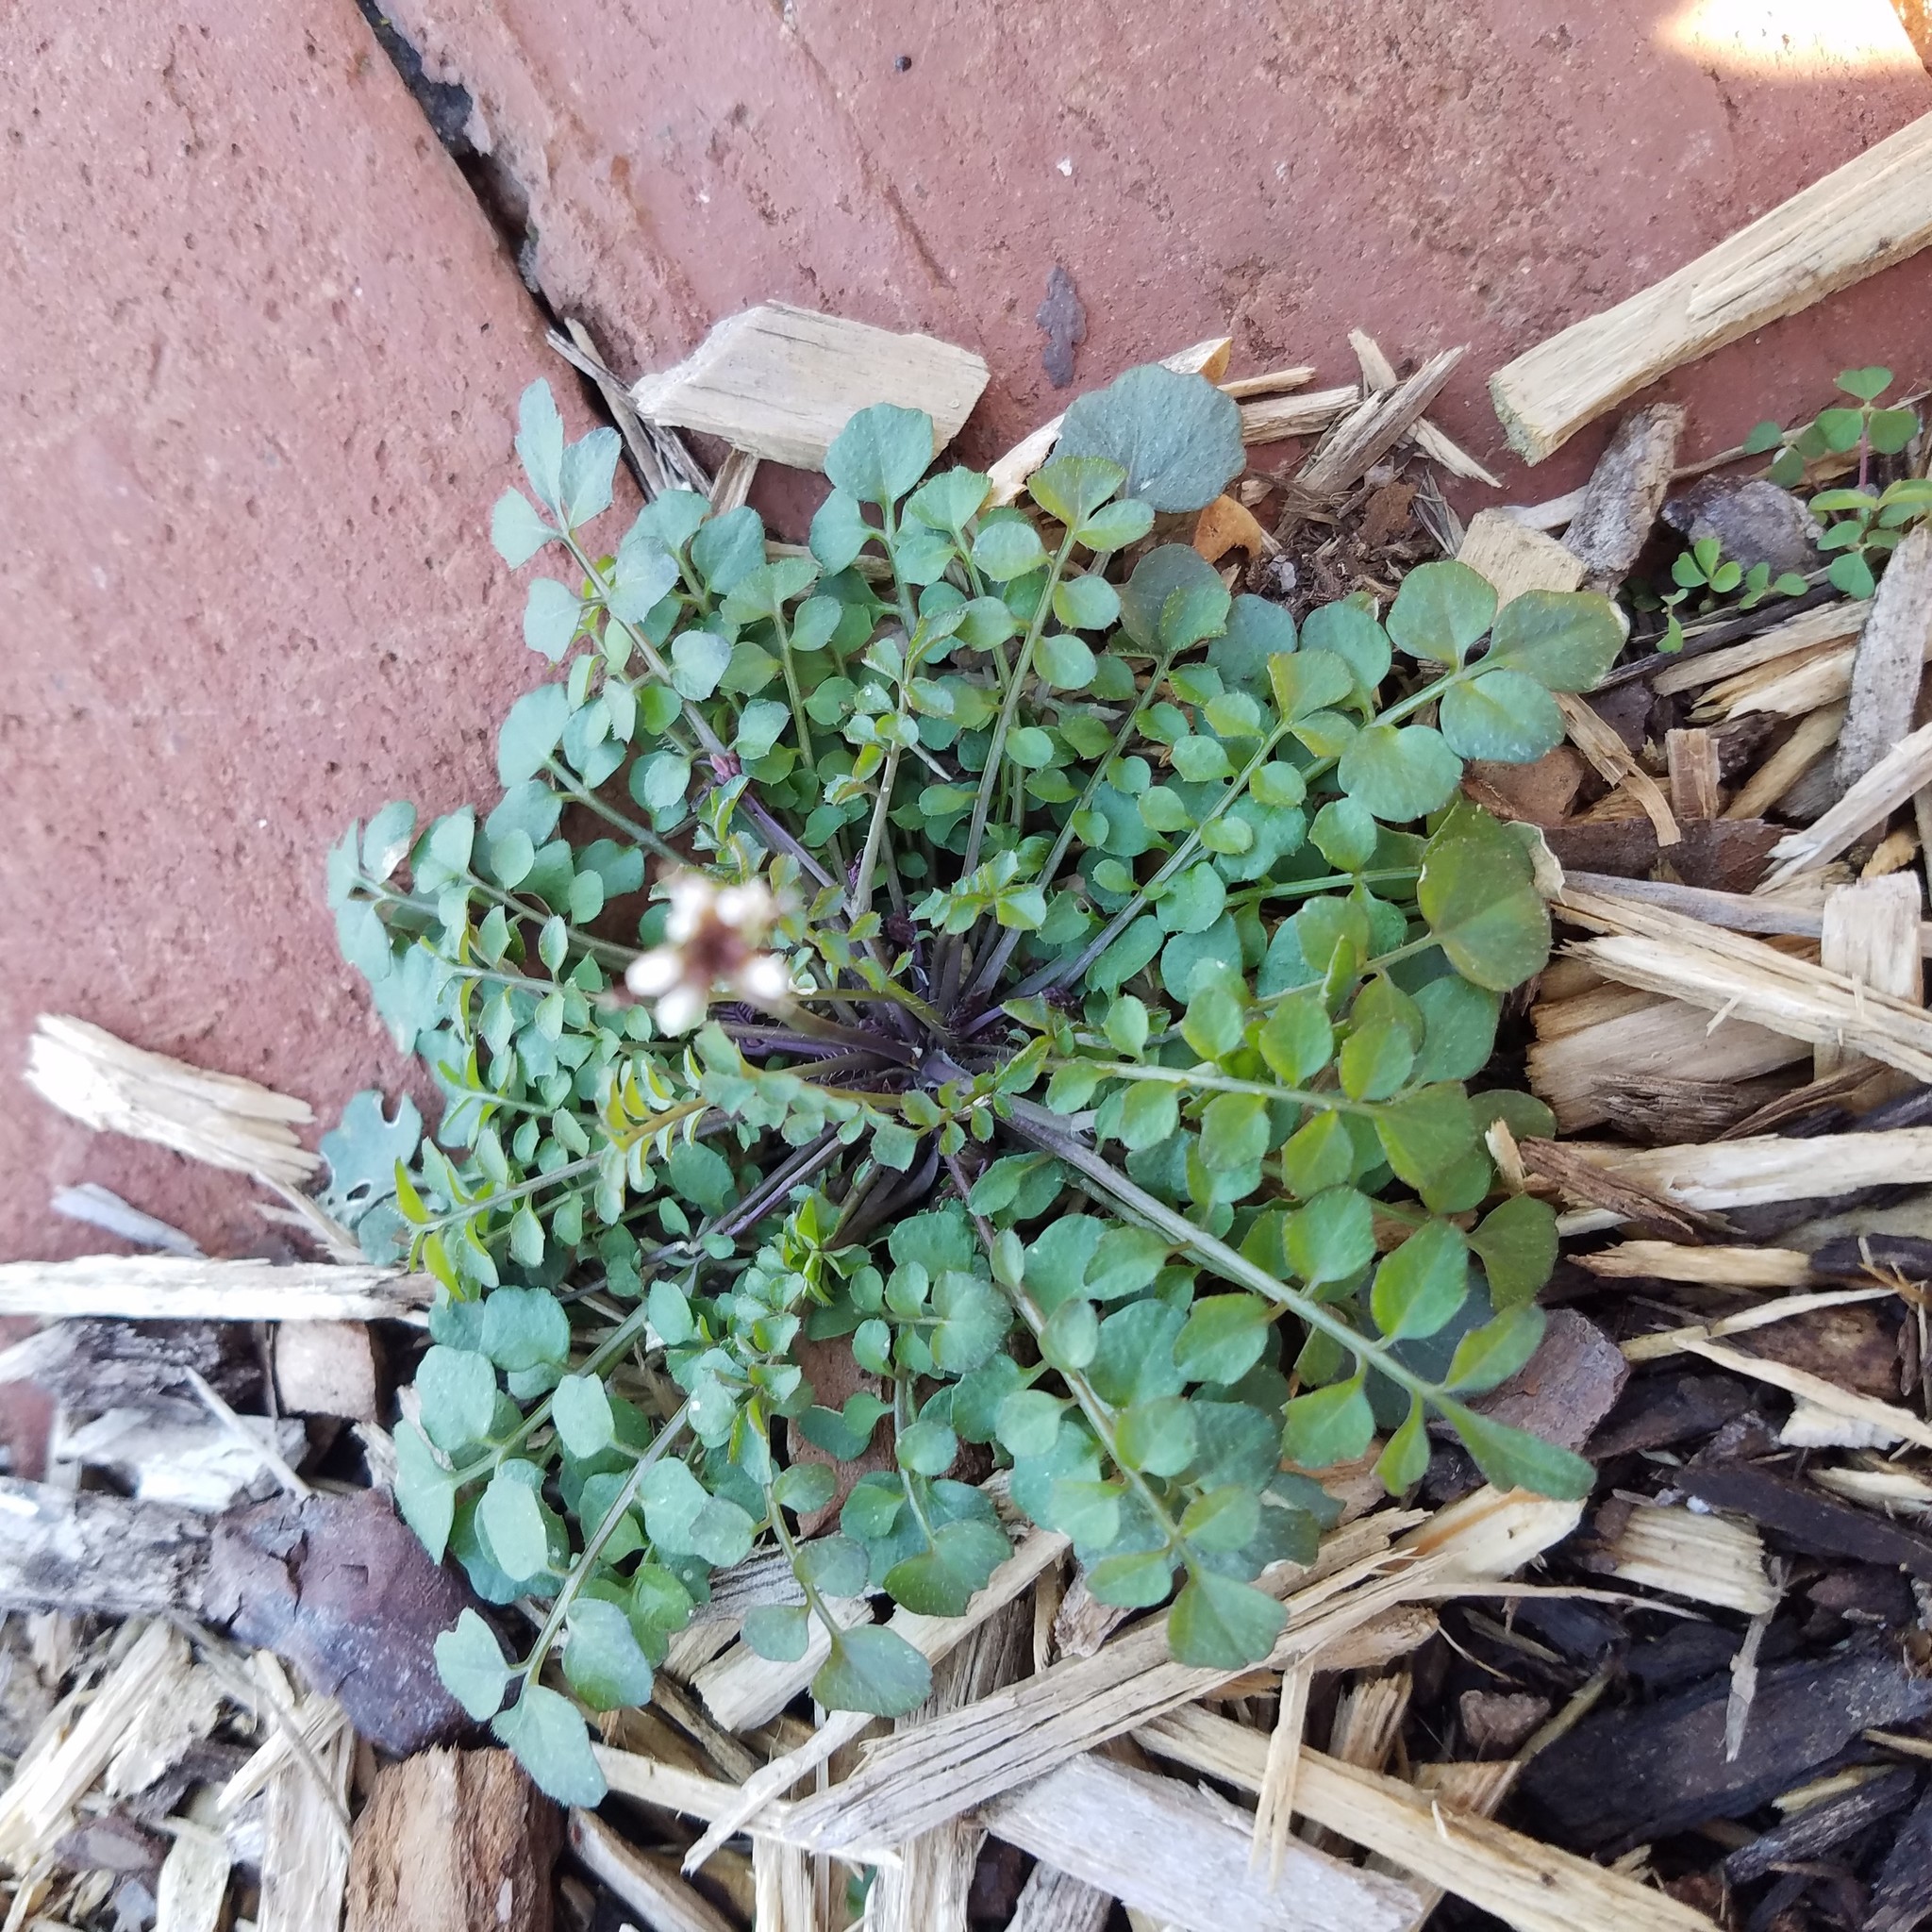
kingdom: Plantae
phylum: Tracheophyta
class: Magnoliopsida
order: Brassicales
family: Brassicaceae
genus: Cardamine
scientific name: Cardamine hirsuta
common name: Hairy bittercress
